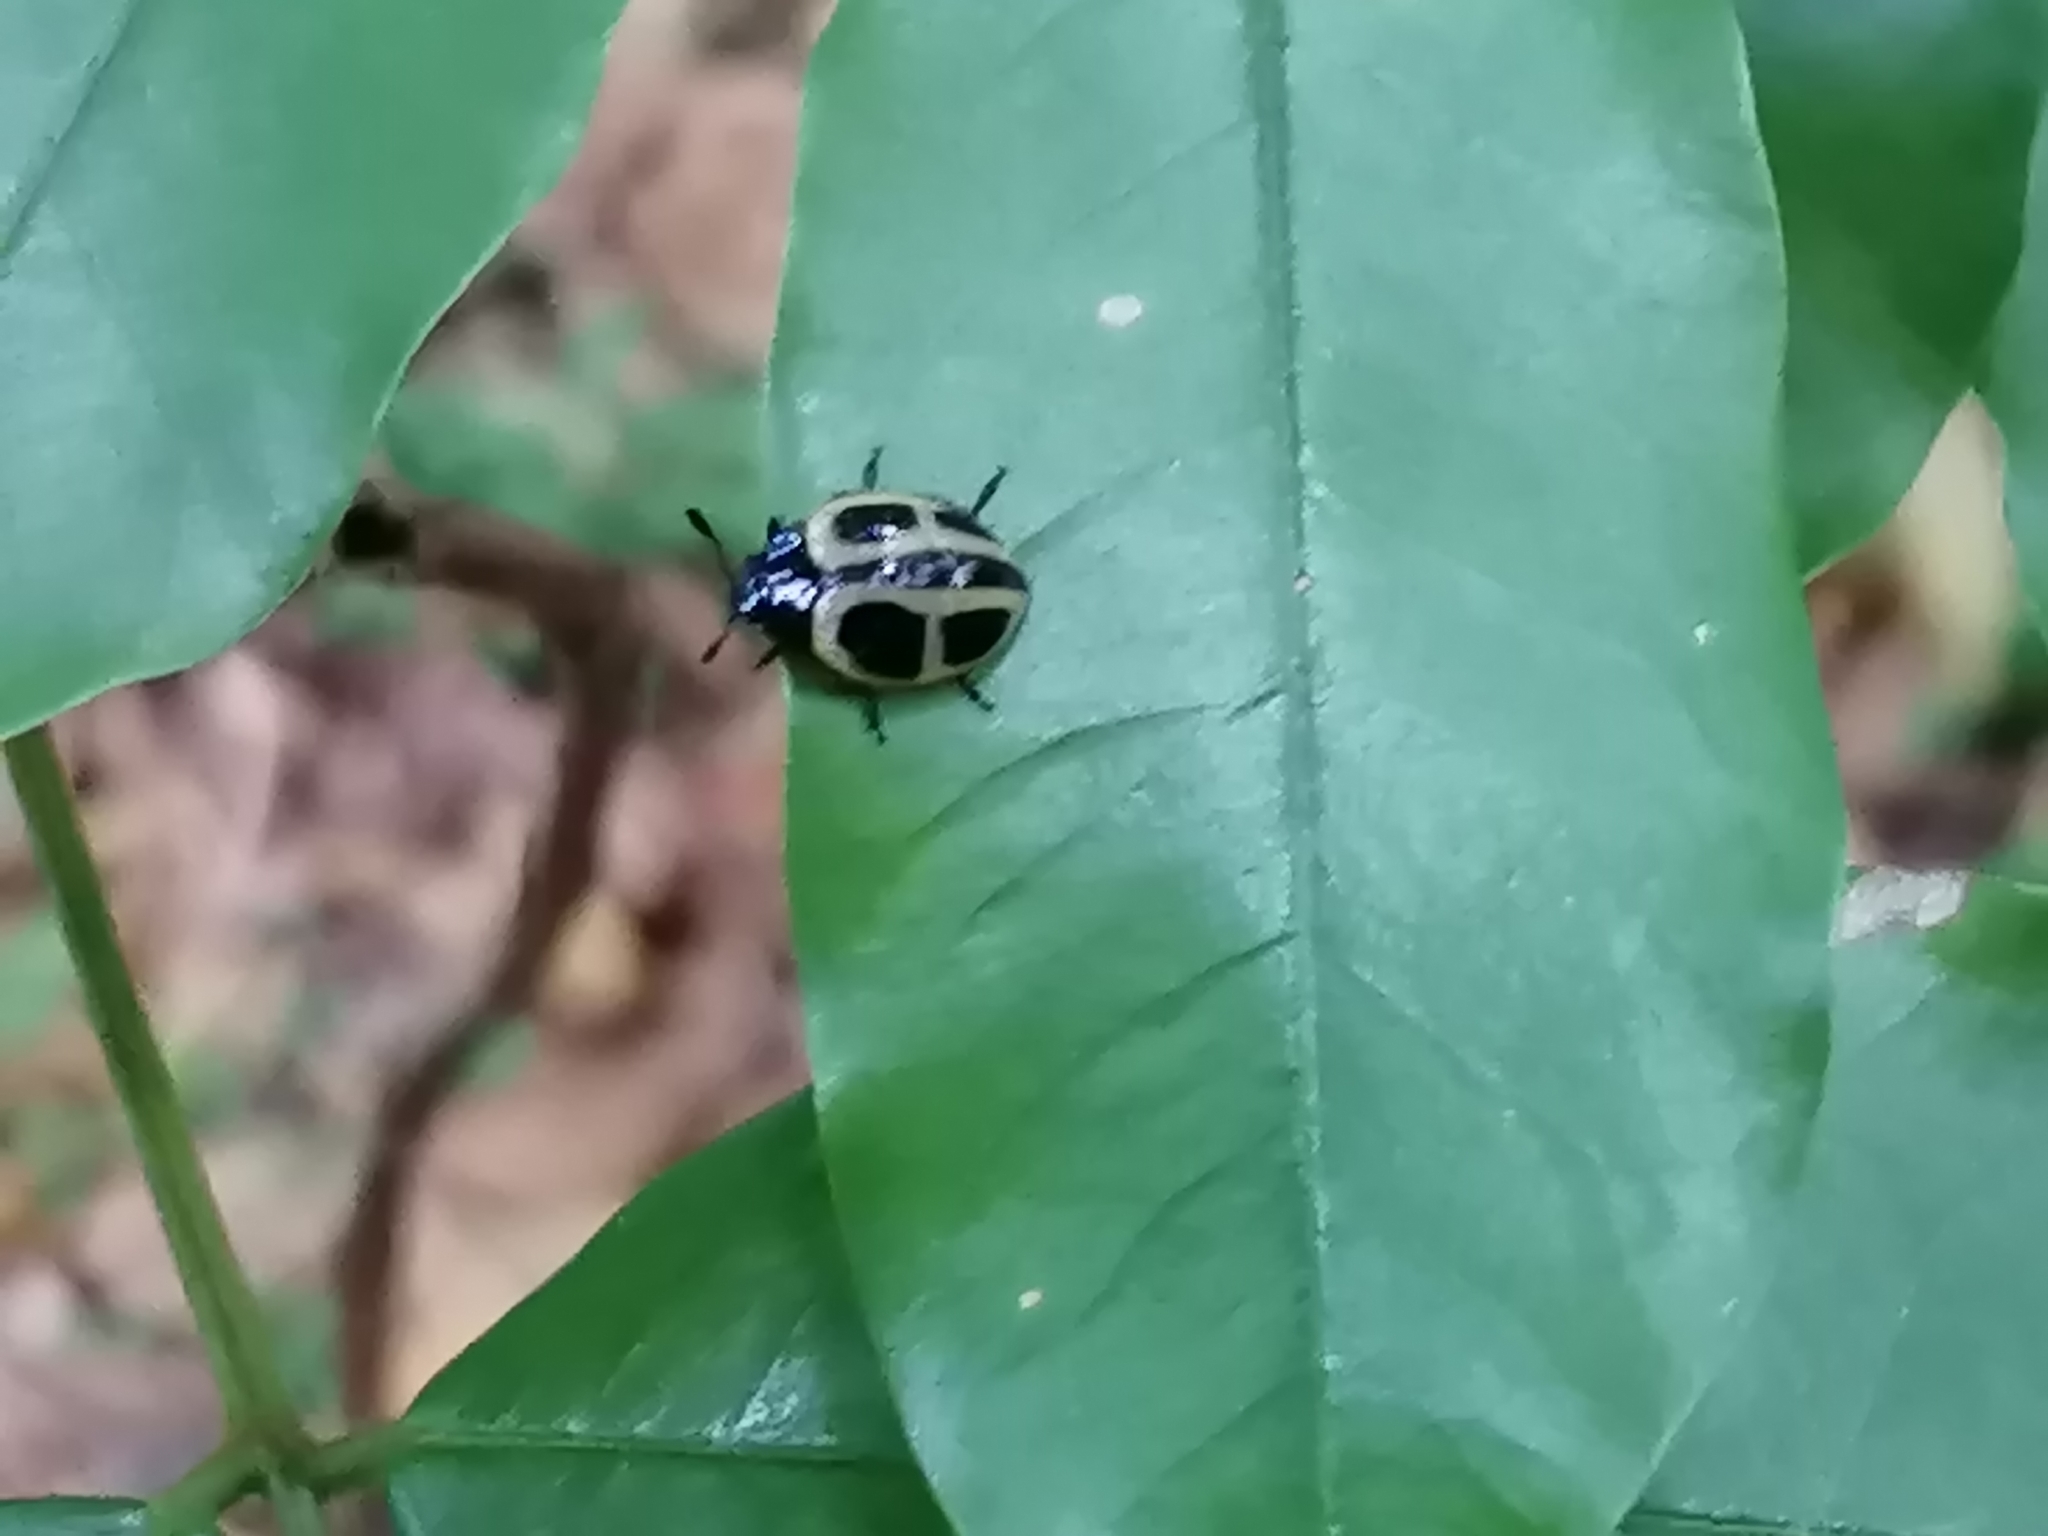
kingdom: Animalia
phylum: Arthropoda
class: Insecta
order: Coleoptera
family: Erotylidae
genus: Aegithus
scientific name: Aegithus
